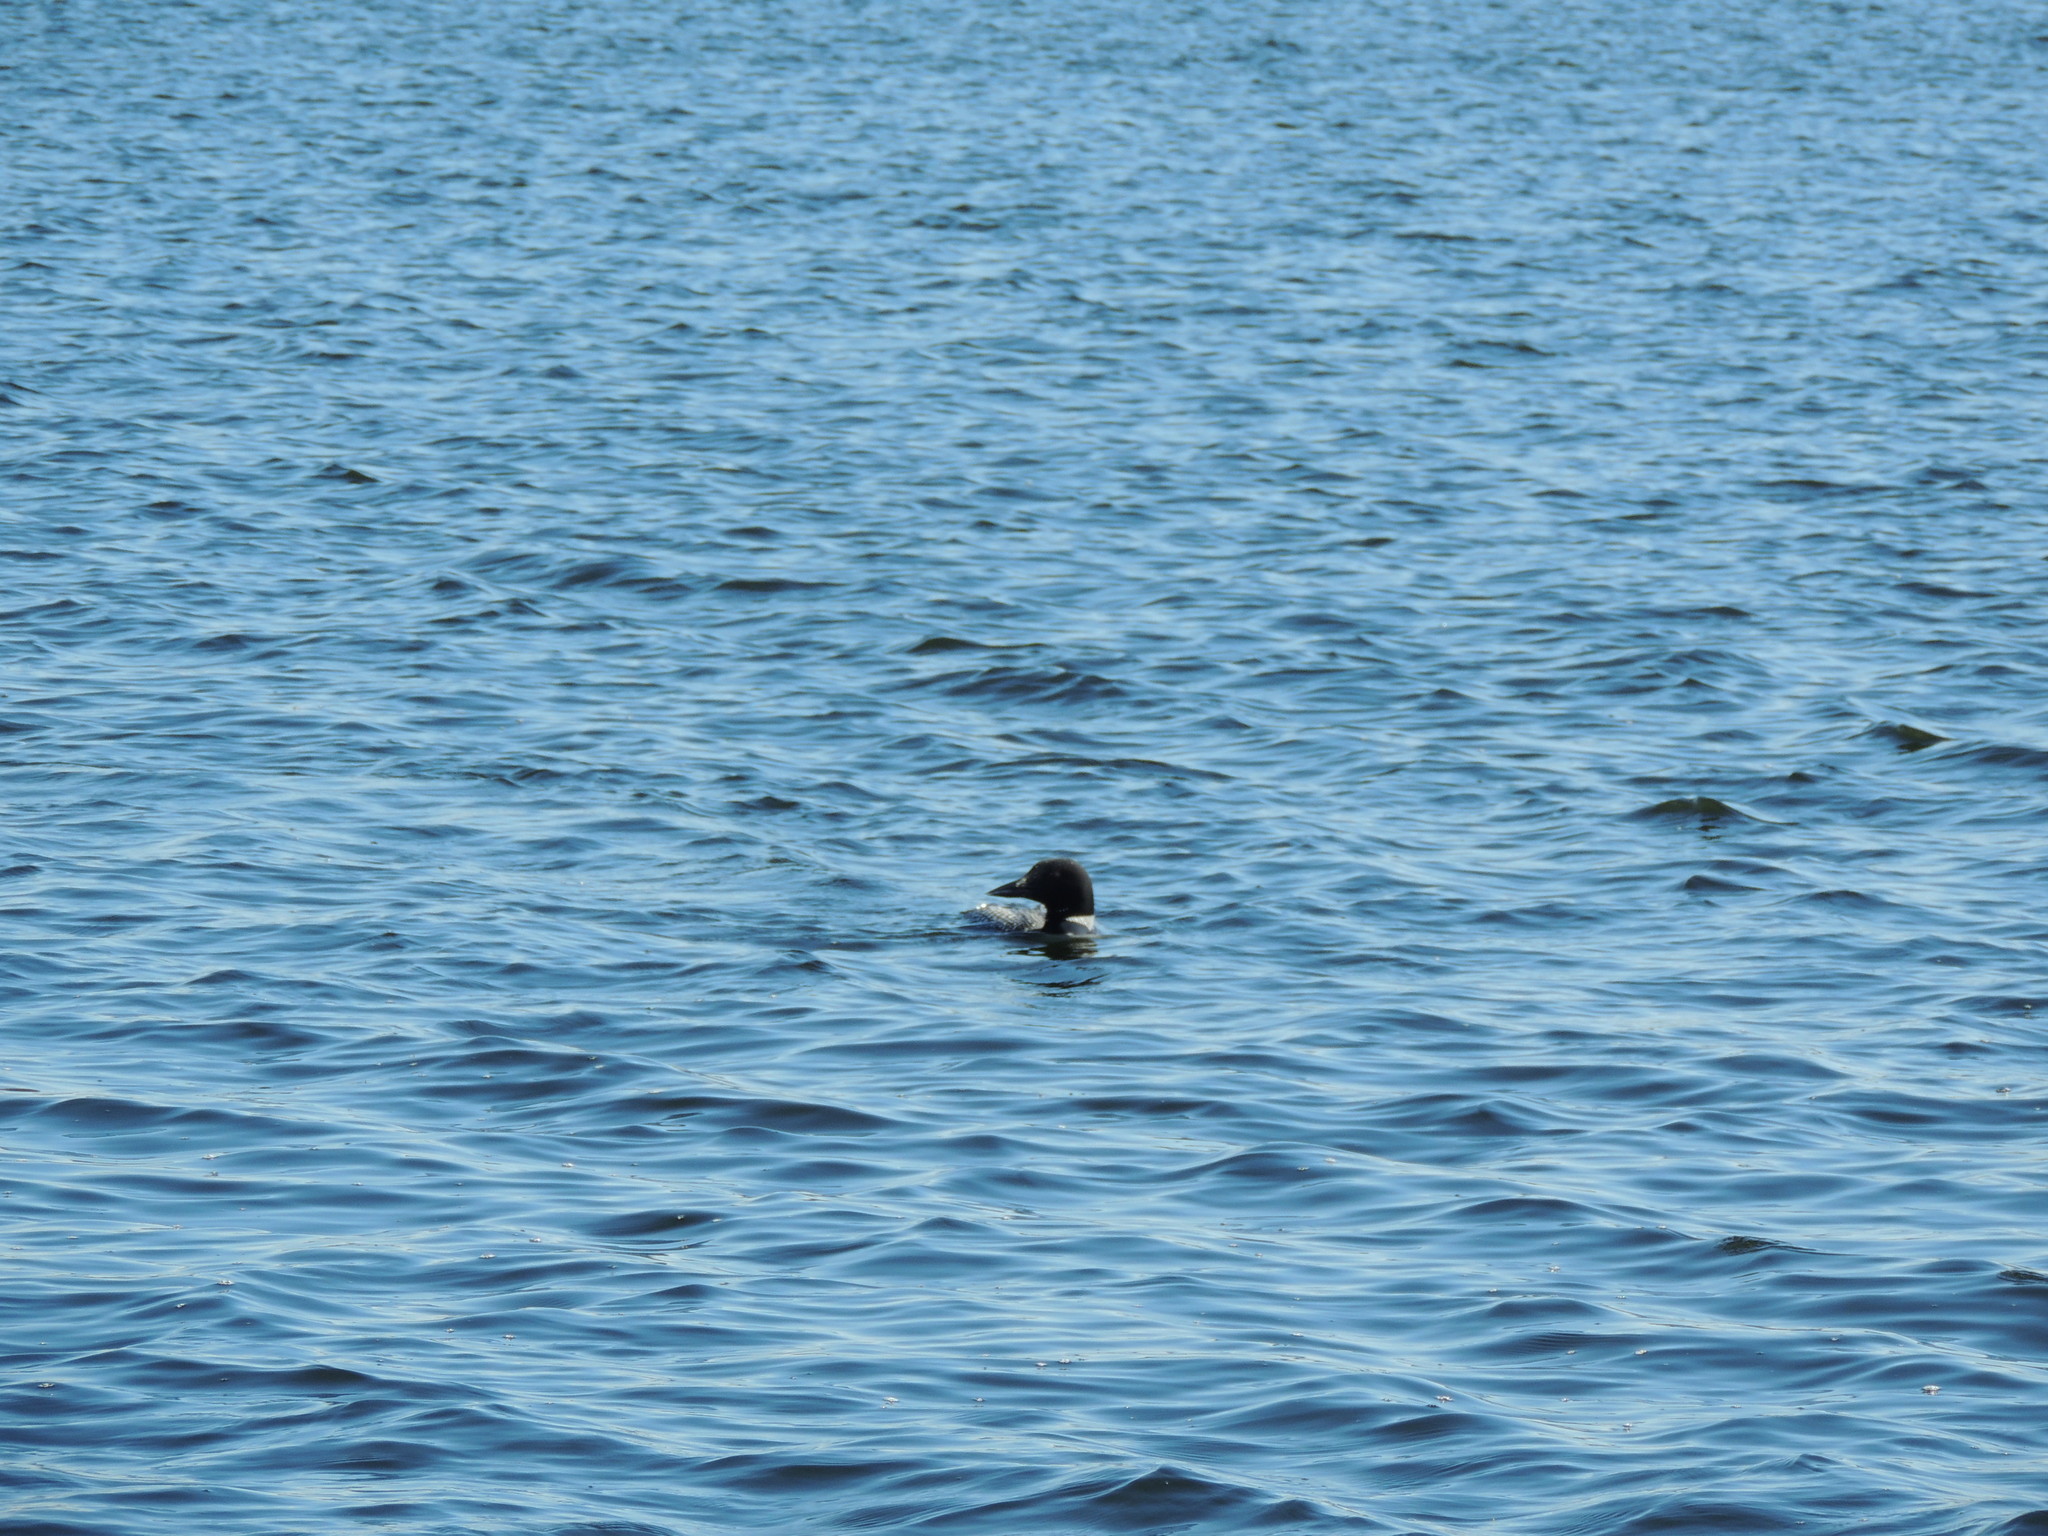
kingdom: Animalia
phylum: Chordata
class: Aves
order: Gaviiformes
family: Gaviidae
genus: Gavia
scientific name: Gavia immer
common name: Common loon
